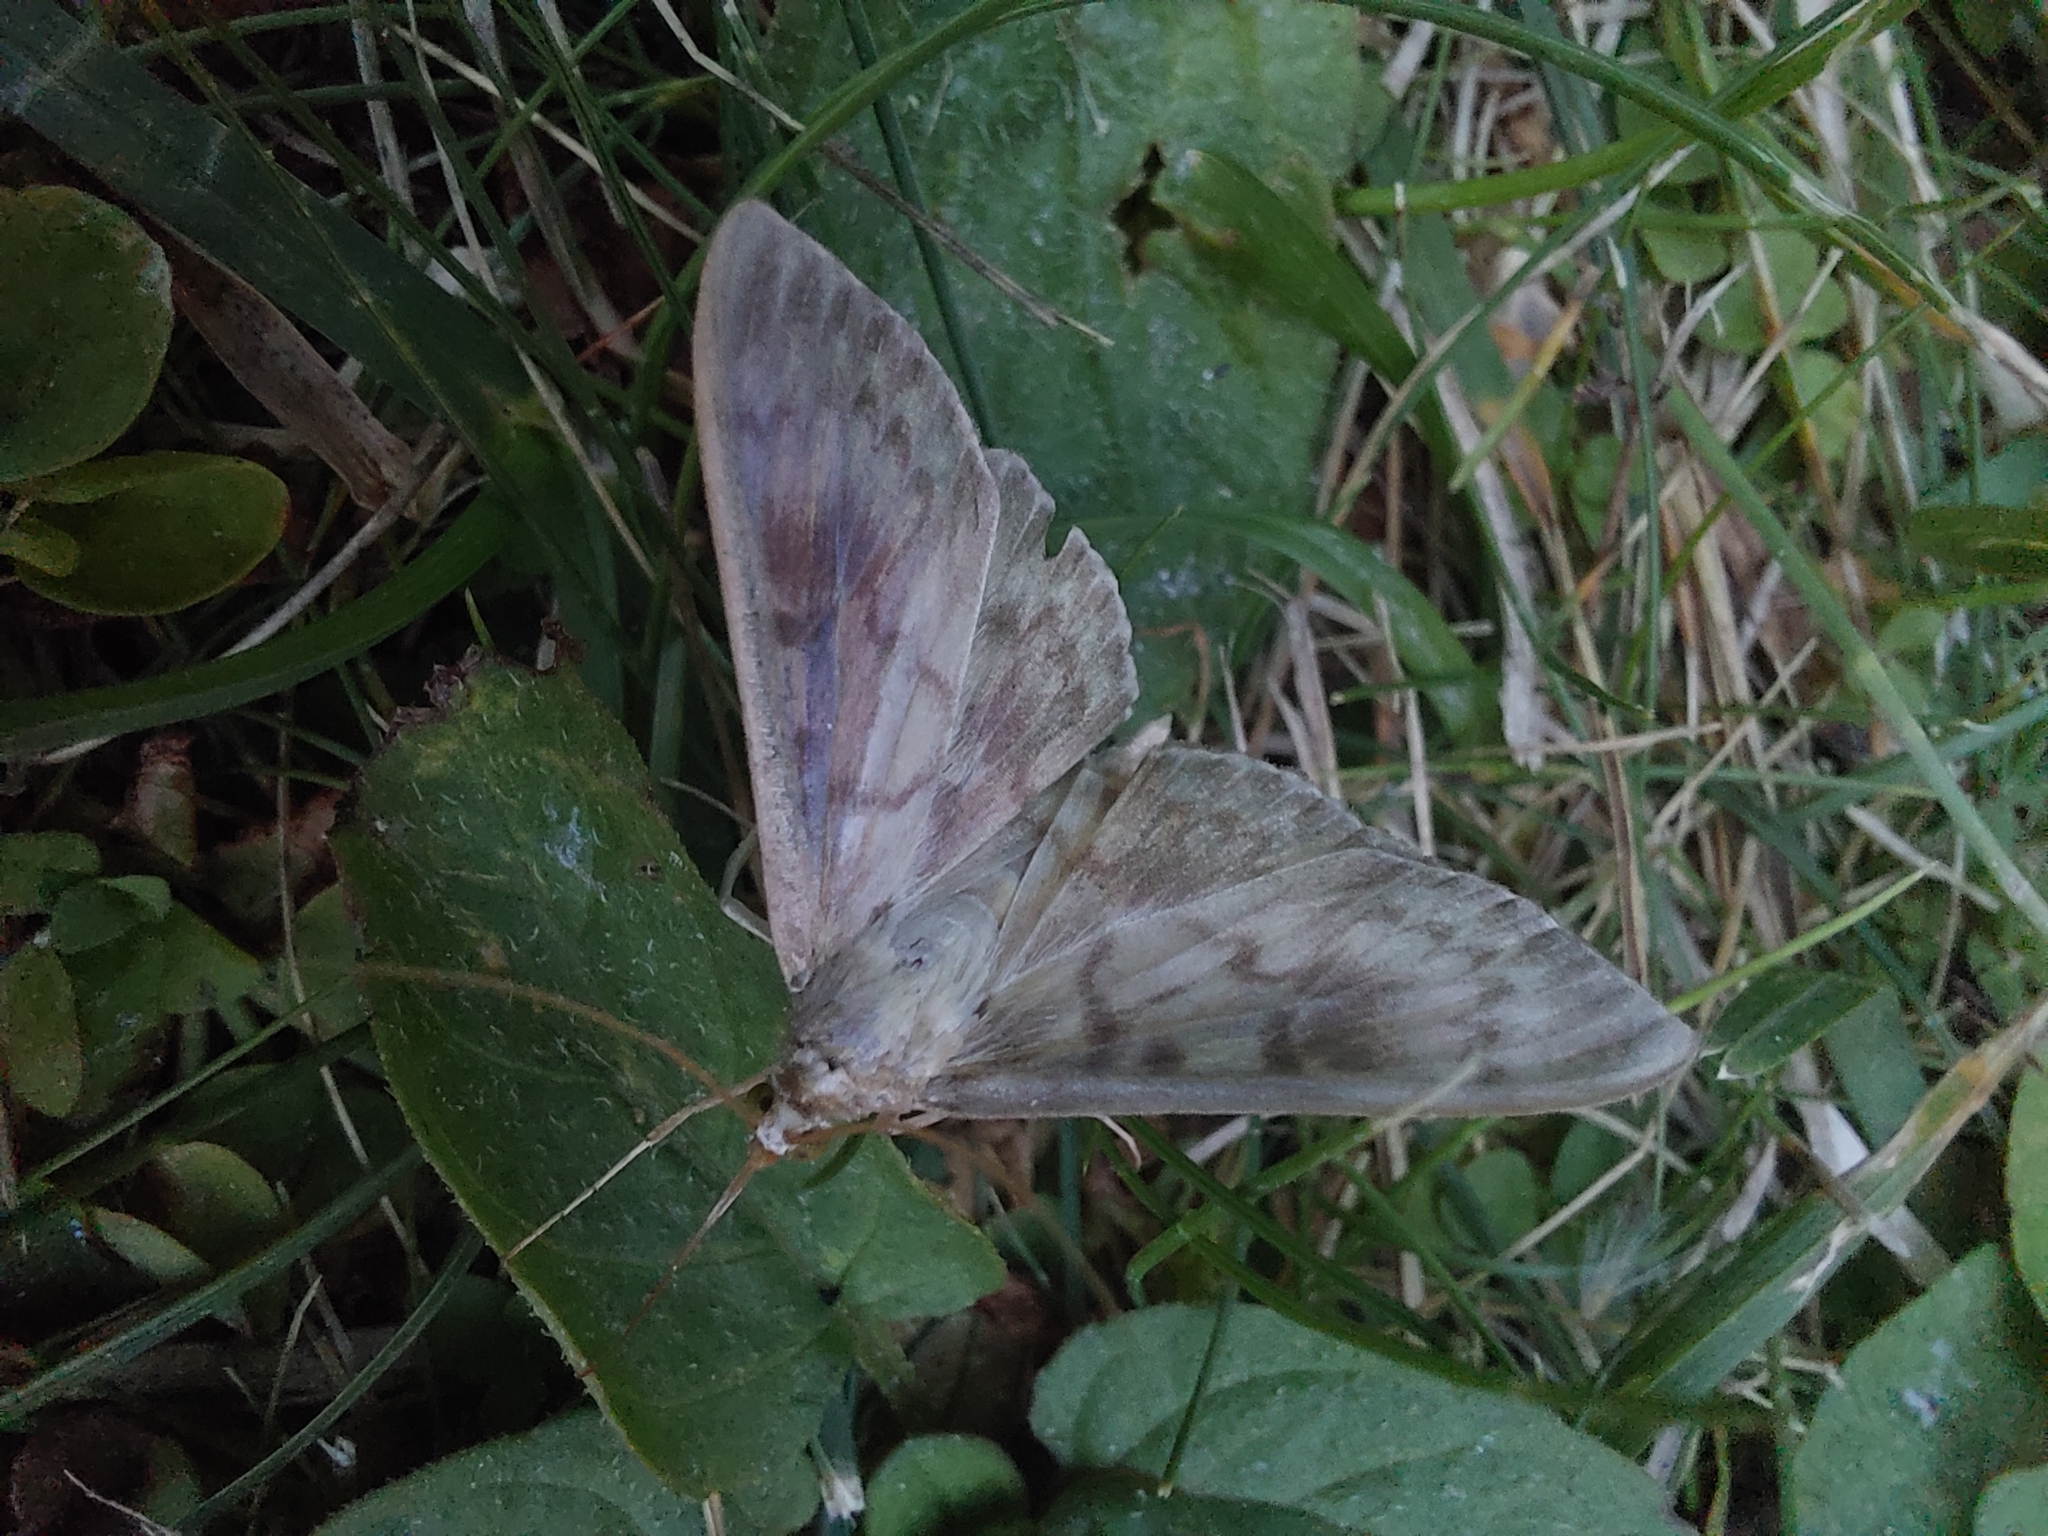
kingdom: Animalia
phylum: Arthropoda
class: Insecta
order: Lepidoptera
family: Crambidae
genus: Patania
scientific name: Patania ruralis
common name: Mother of pearl
